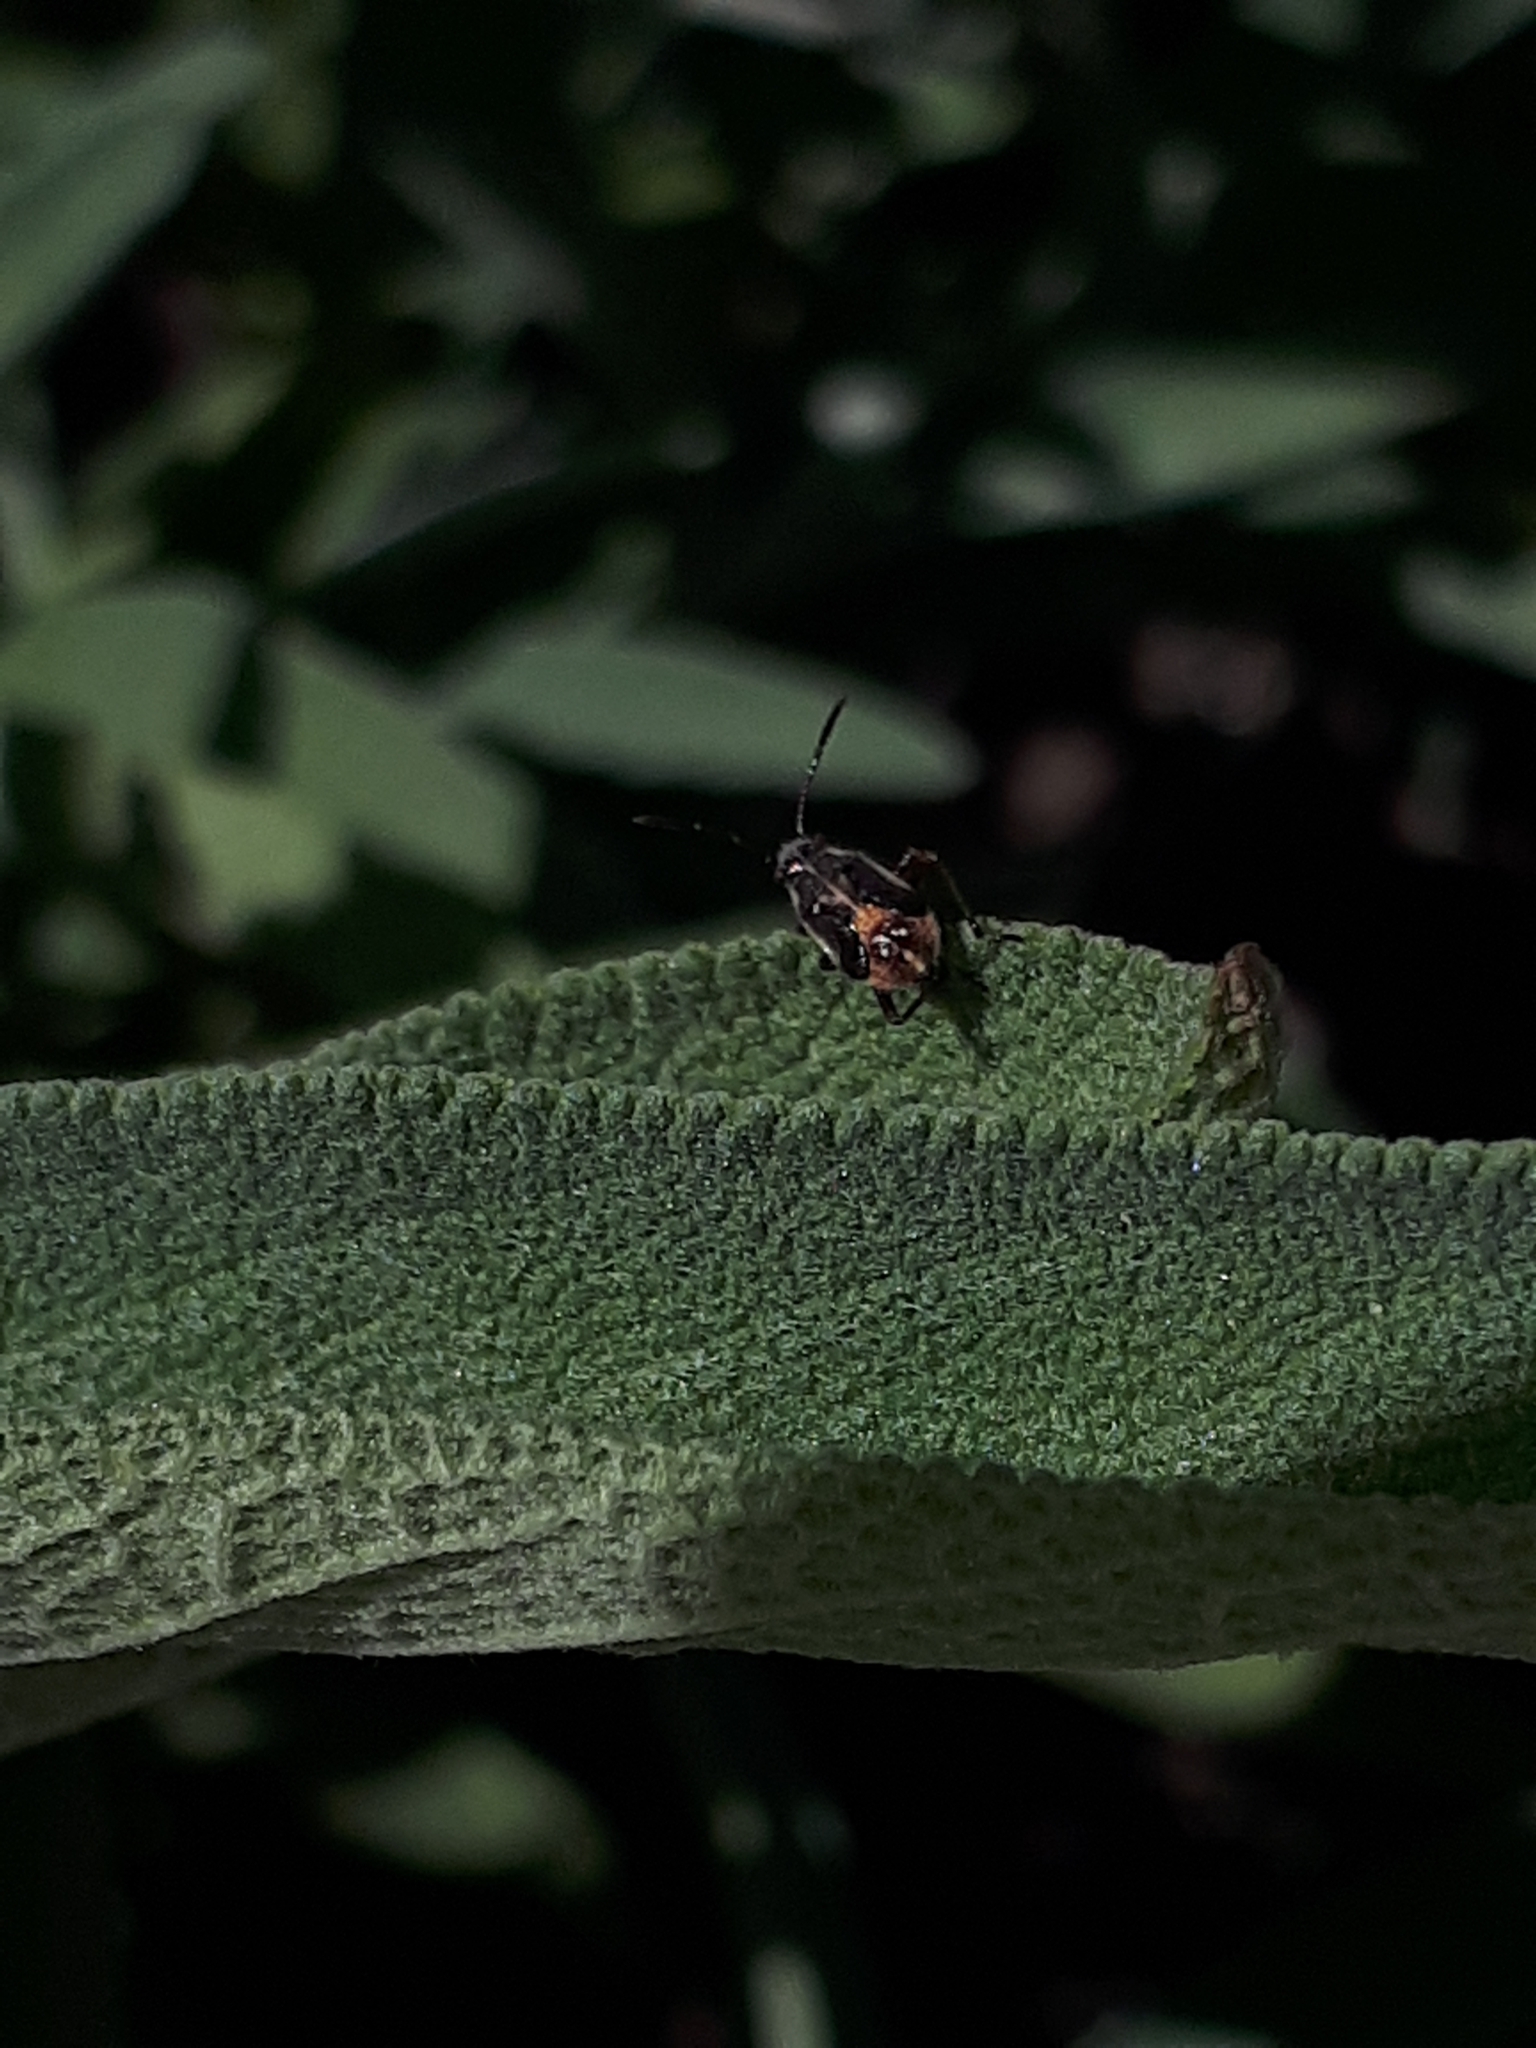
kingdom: Animalia
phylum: Arthropoda
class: Insecta
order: Hemiptera
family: Rhopalidae
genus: Liorhyssus
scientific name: Liorhyssus hyalinus
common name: Scentless plant bug
